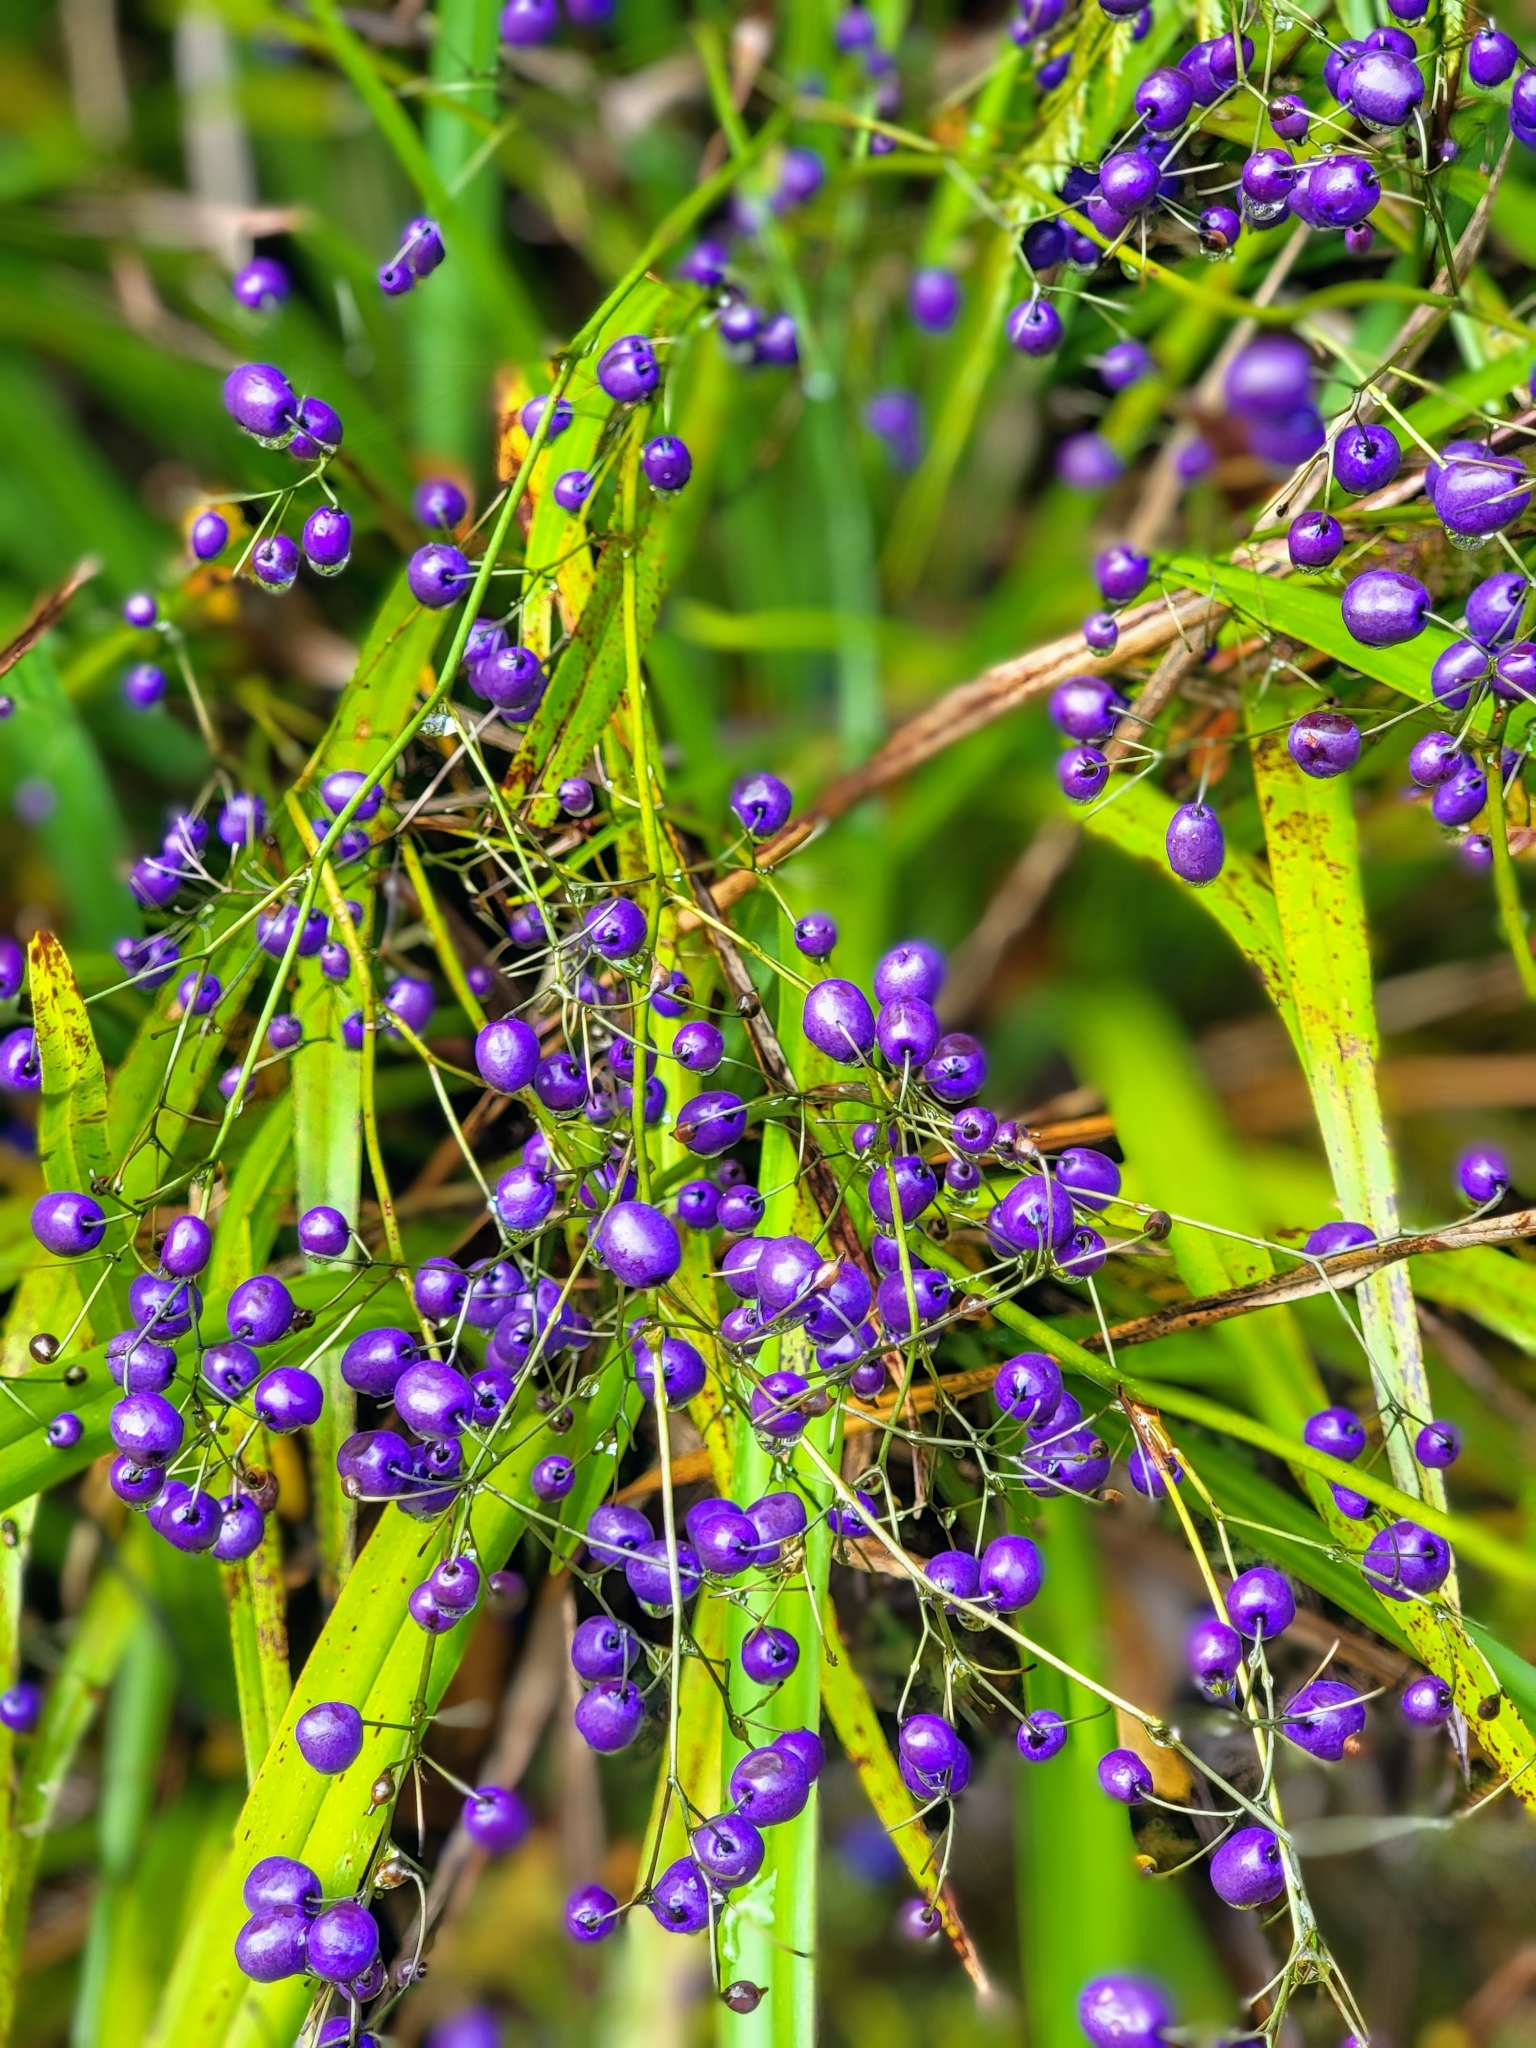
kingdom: Plantae
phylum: Tracheophyta
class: Liliopsida
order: Asparagales
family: Asphodelaceae
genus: Dianella
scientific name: Dianella nigra
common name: New zealand-blueberry
